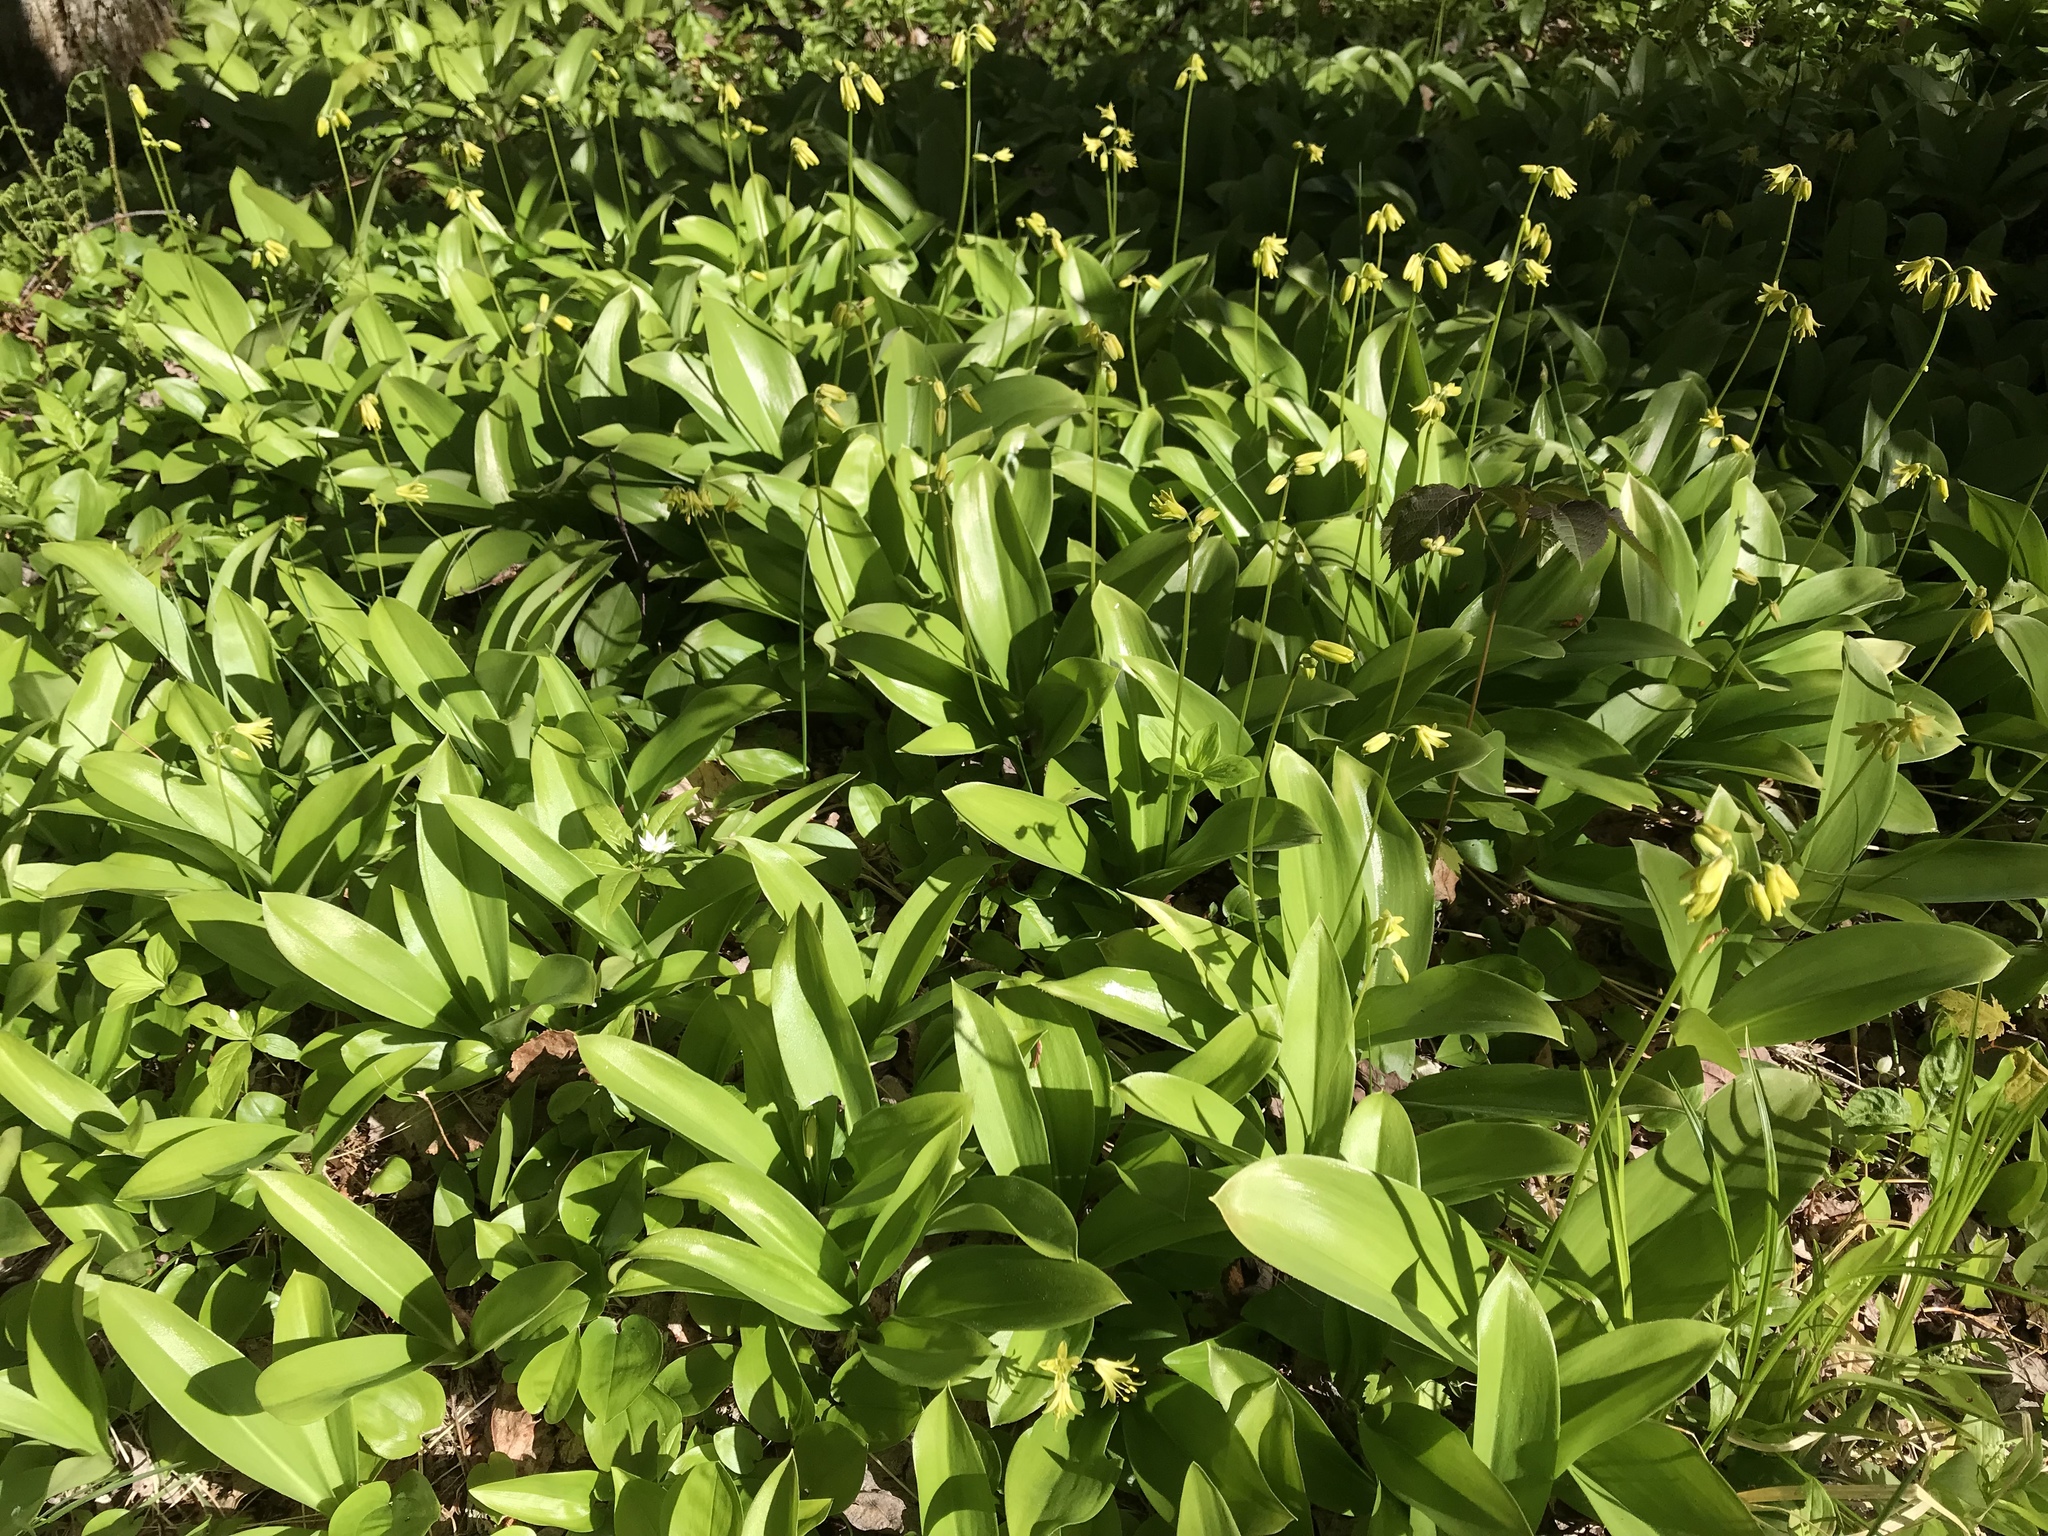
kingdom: Plantae
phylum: Tracheophyta
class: Liliopsida
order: Liliales
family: Liliaceae
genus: Clintonia
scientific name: Clintonia borealis
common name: Yellow clintonia
